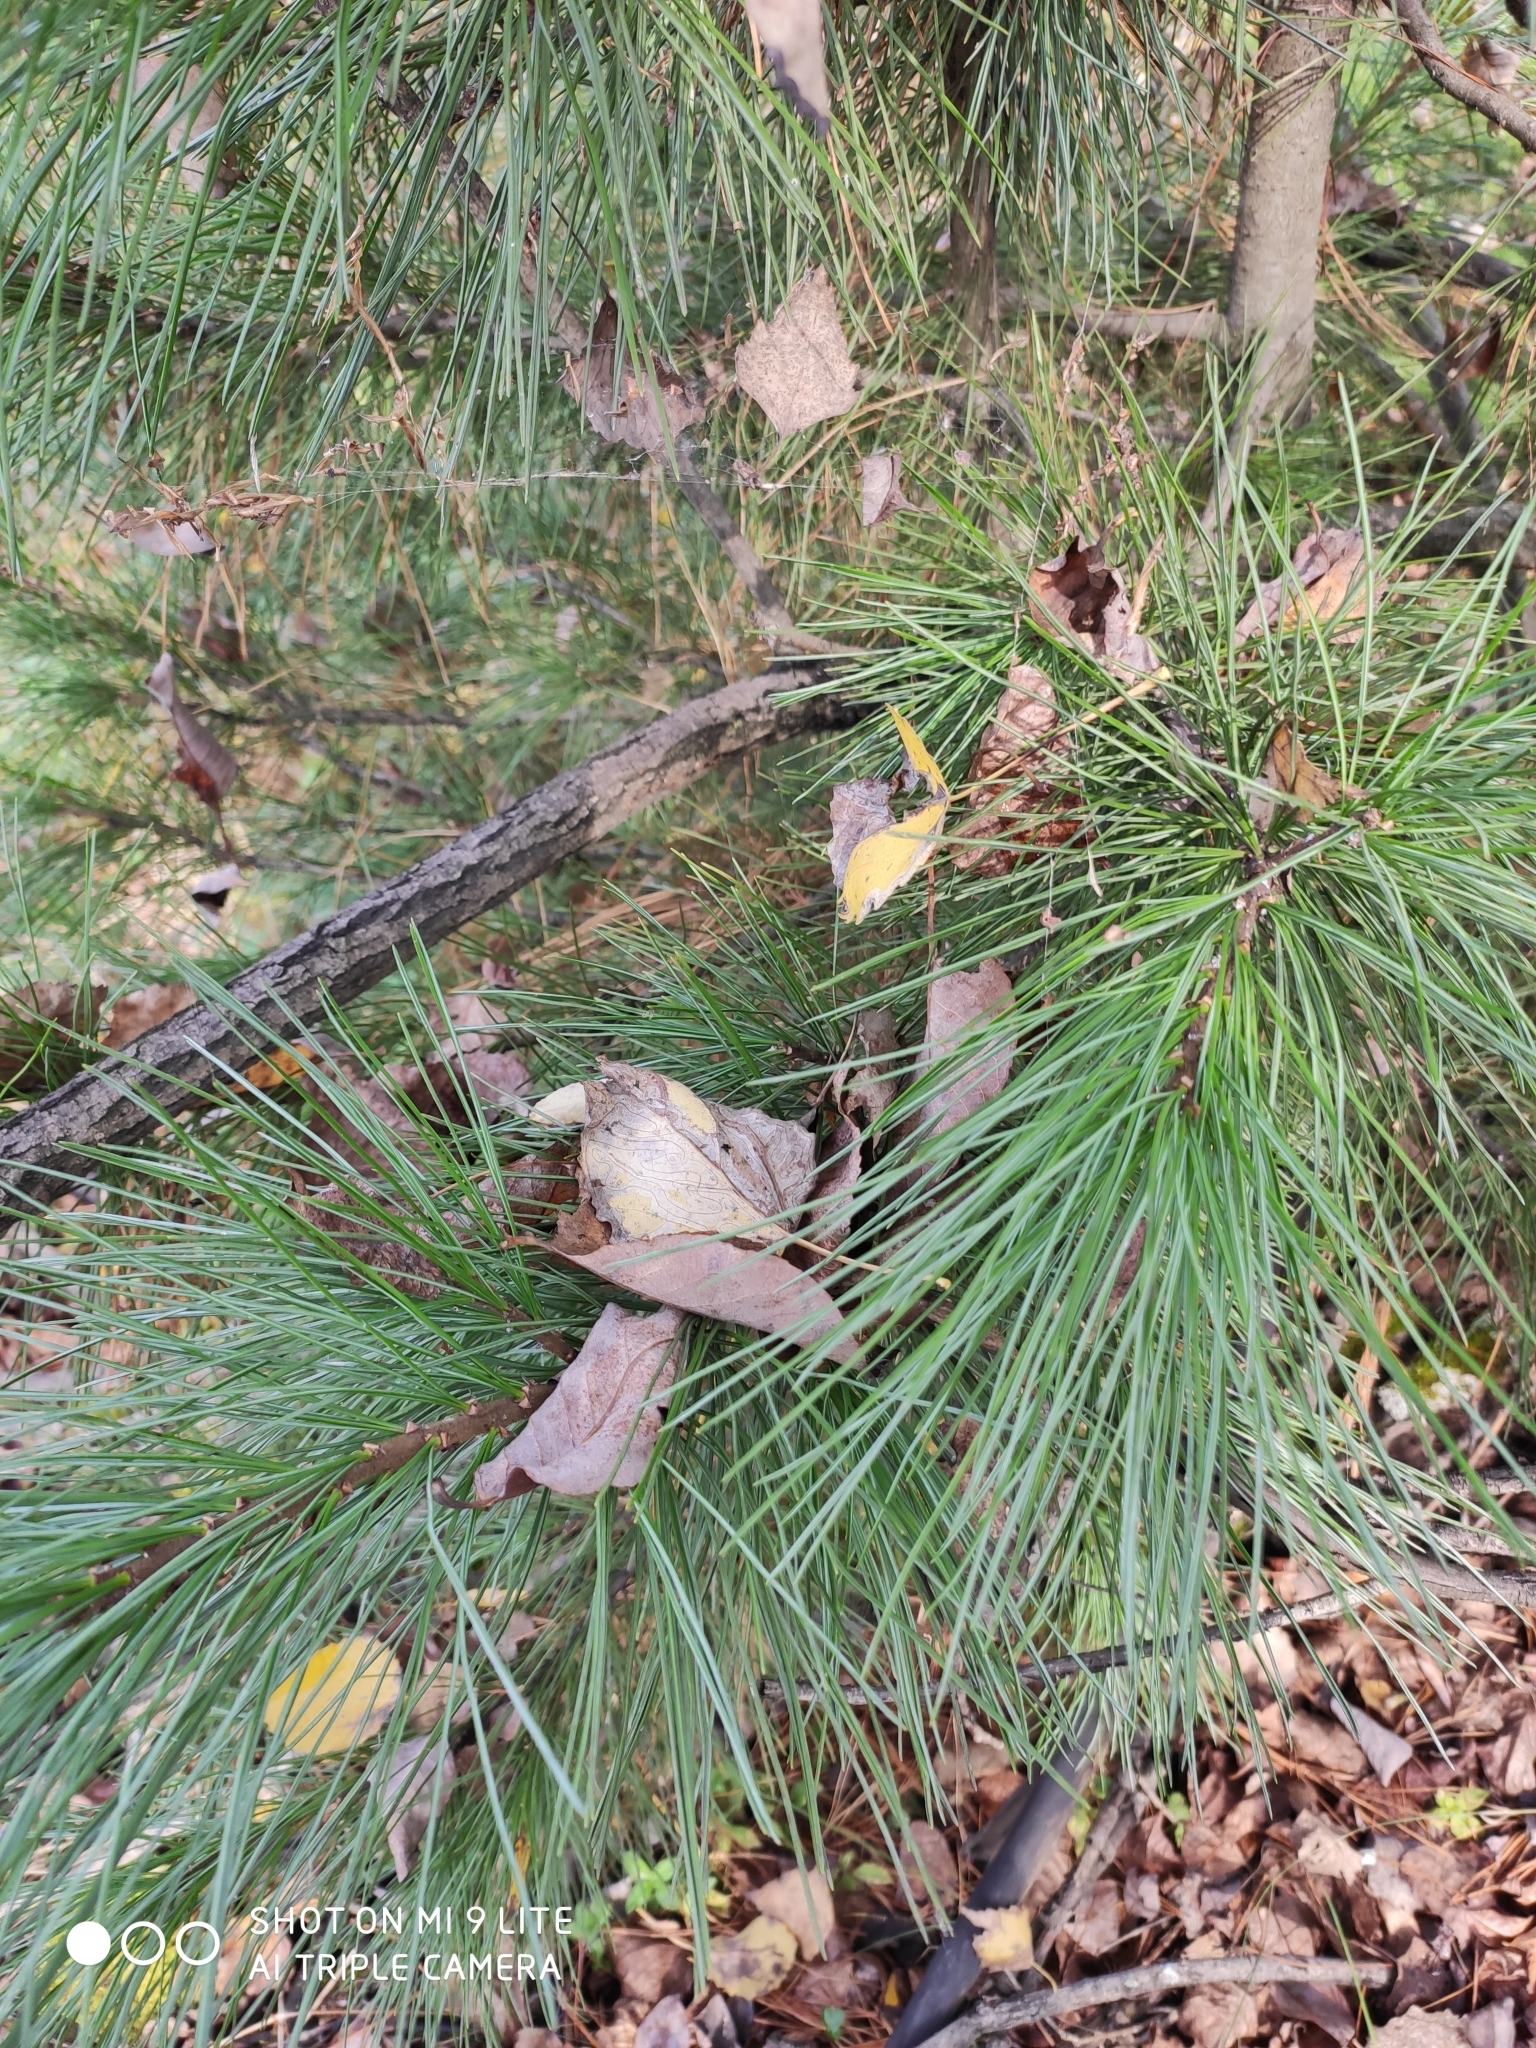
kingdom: Plantae
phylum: Tracheophyta
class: Pinopsida
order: Pinales
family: Pinaceae
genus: Pinus
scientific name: Pinus sibirica
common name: Siberian pine
